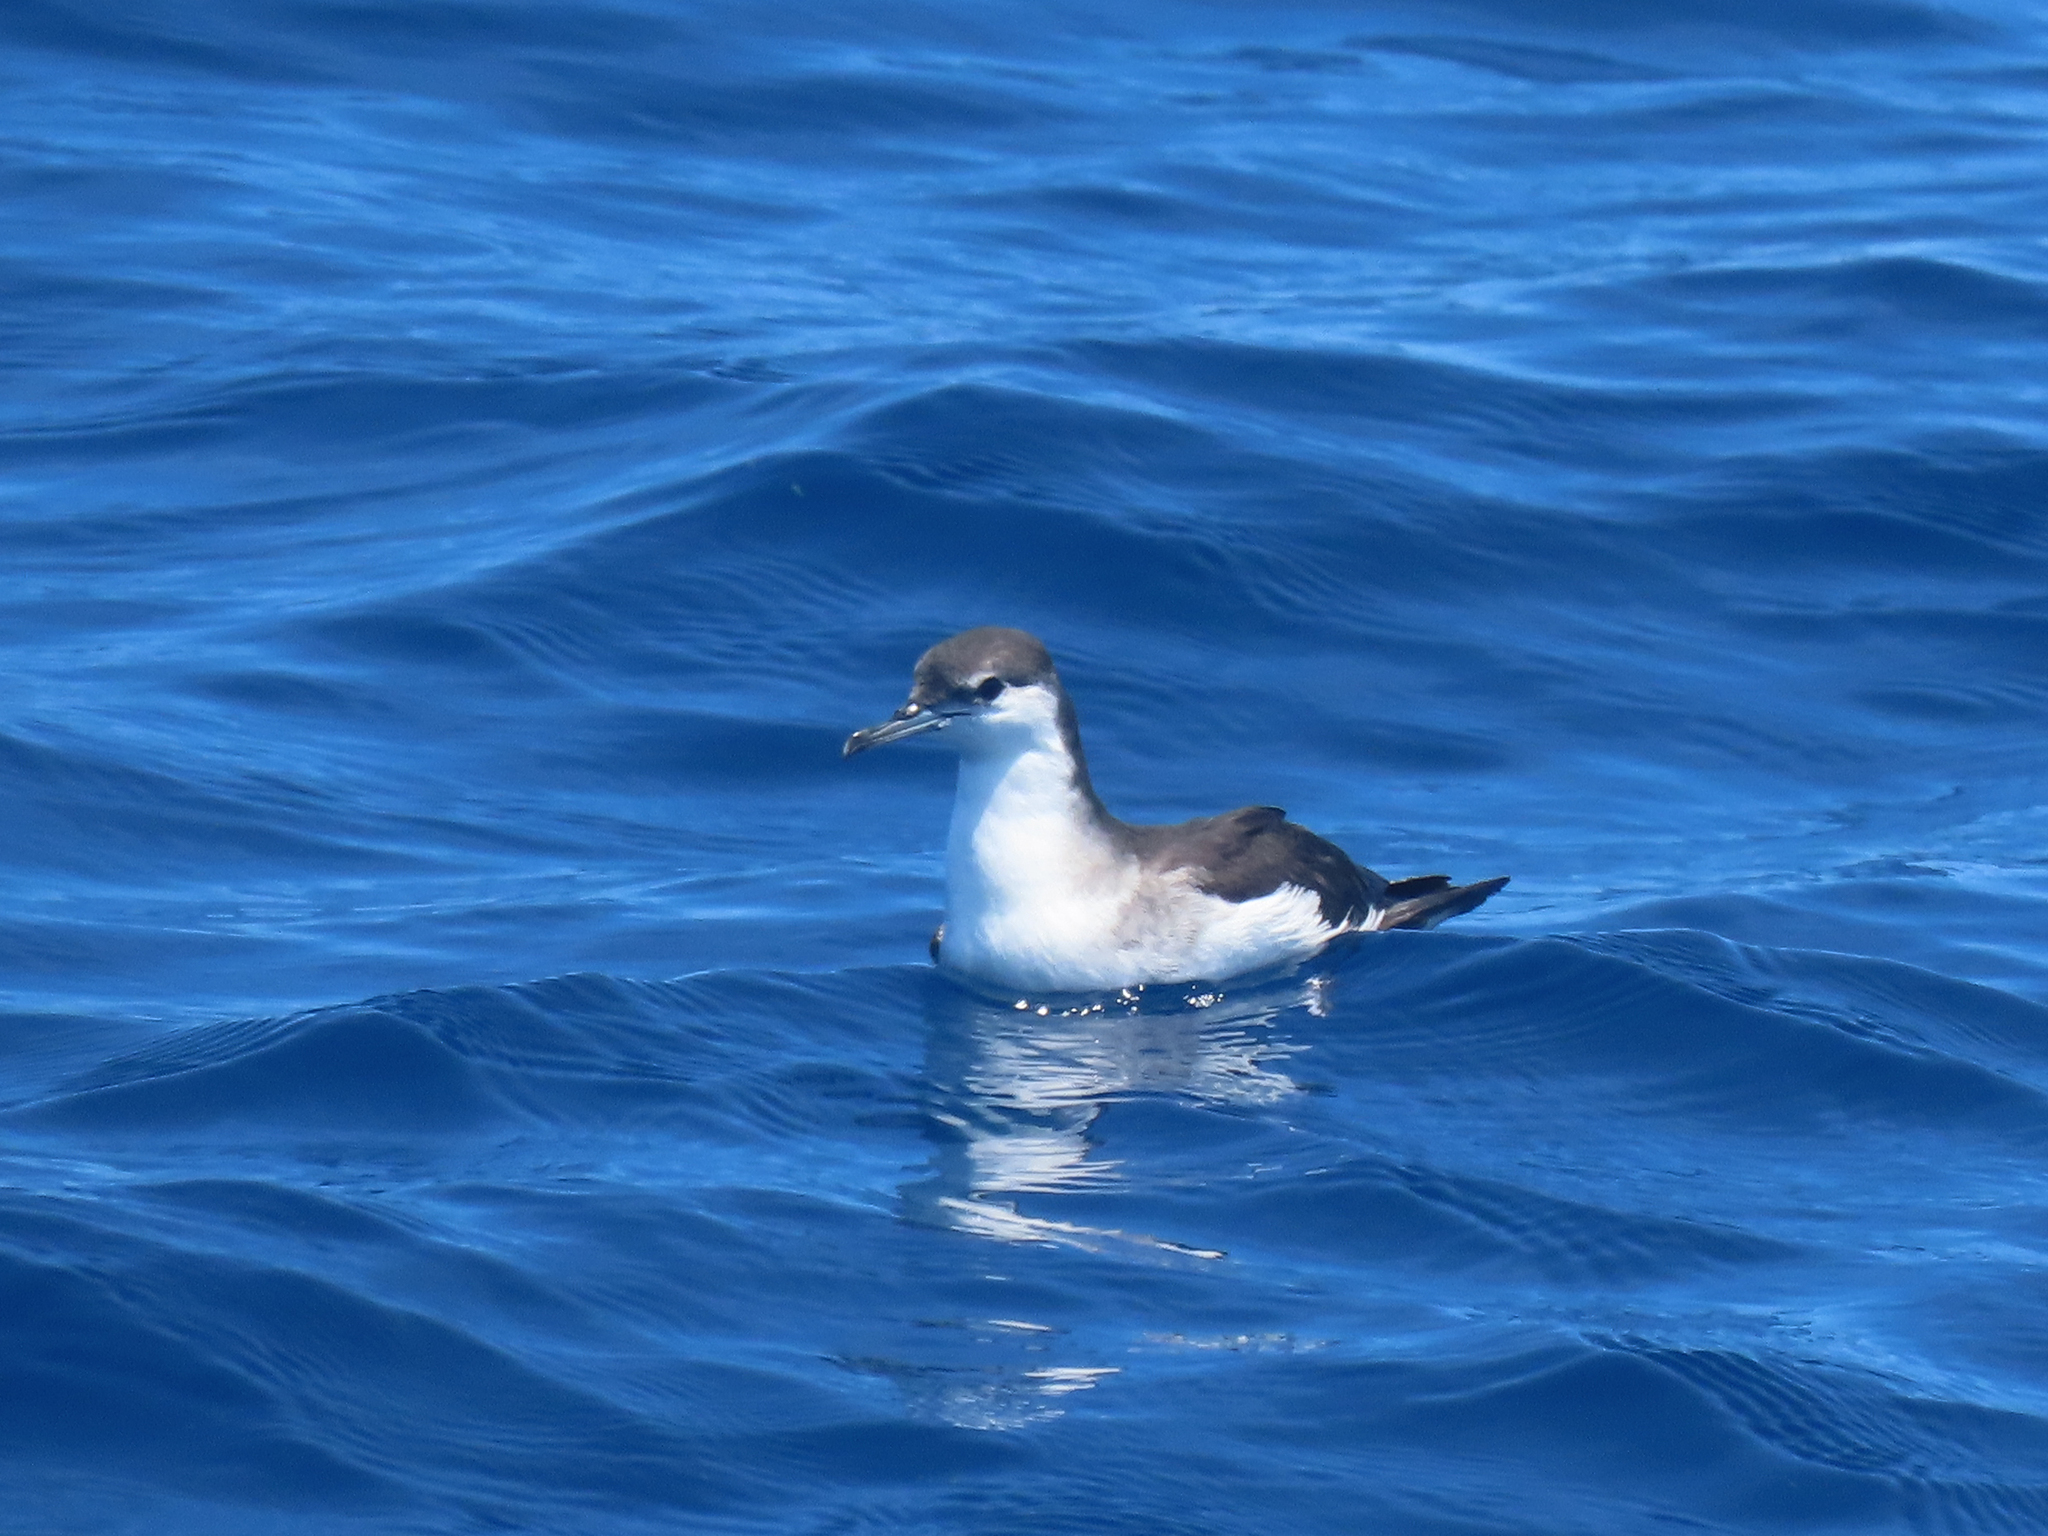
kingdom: Animalia
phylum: Chordata
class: Aves
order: Procellariiformes
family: Procellariidae
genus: Puffinus
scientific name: Puffinus lherminieri
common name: Audubon's shearwater
